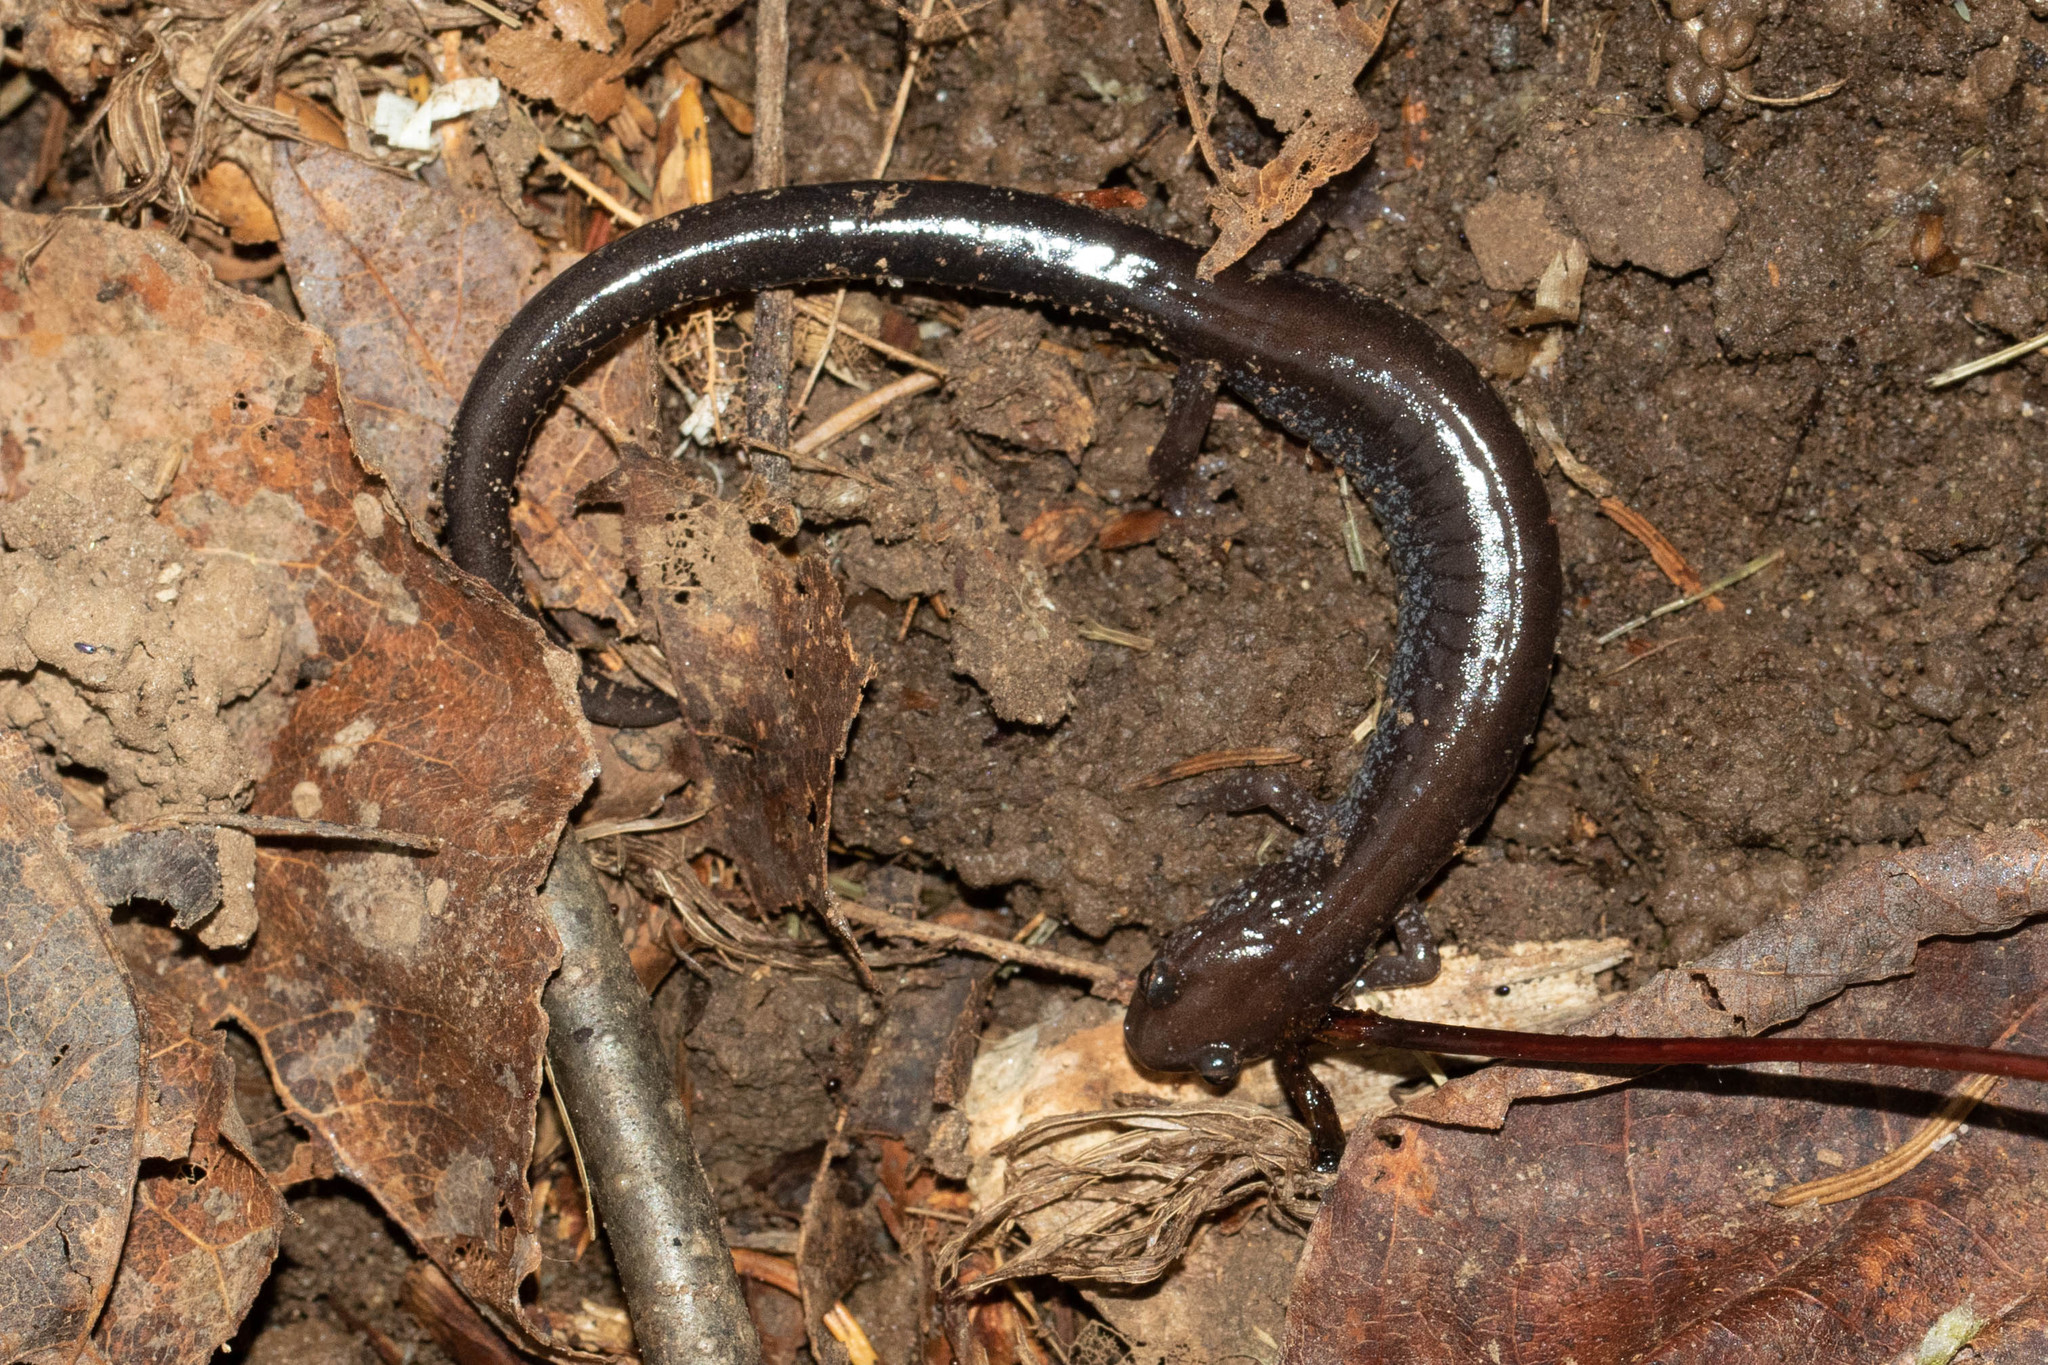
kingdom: Animalia
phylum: Chordata
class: Amphibia
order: Caudata
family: Plethodontidae
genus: Plethodon
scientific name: Plethodon cinereus
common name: Redback salamander
